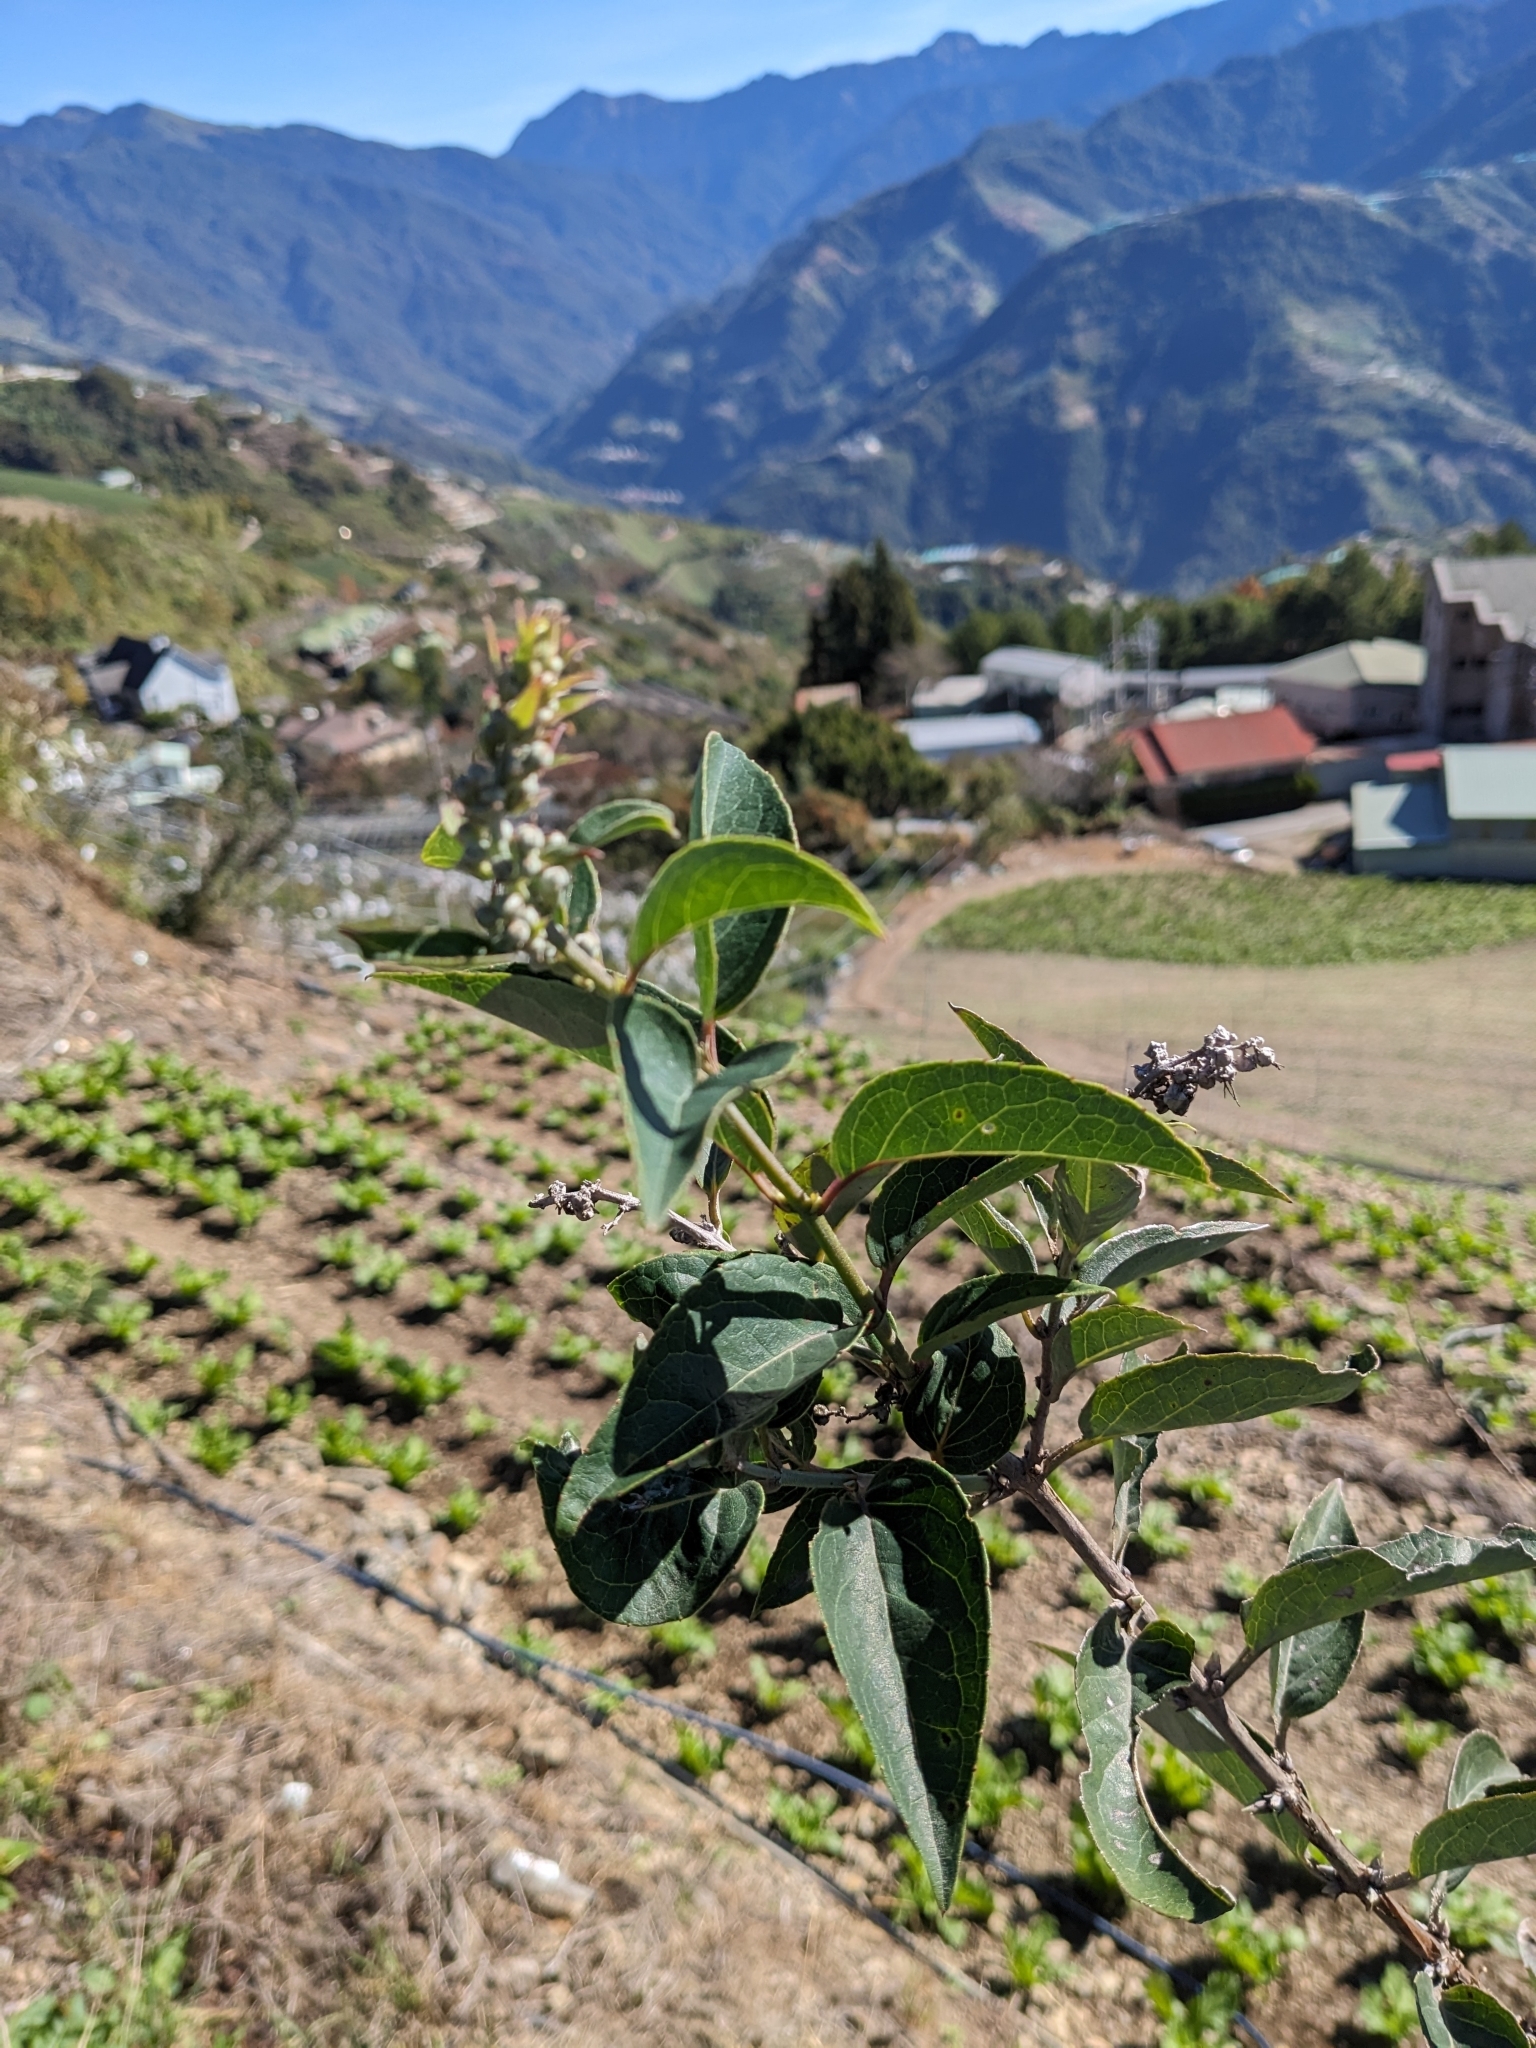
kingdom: Plantae
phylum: Tracheophyta
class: Magnoliopsida
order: Cornales
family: Hydrangeaceae
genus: Deutzia
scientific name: Deutzia pulchra
